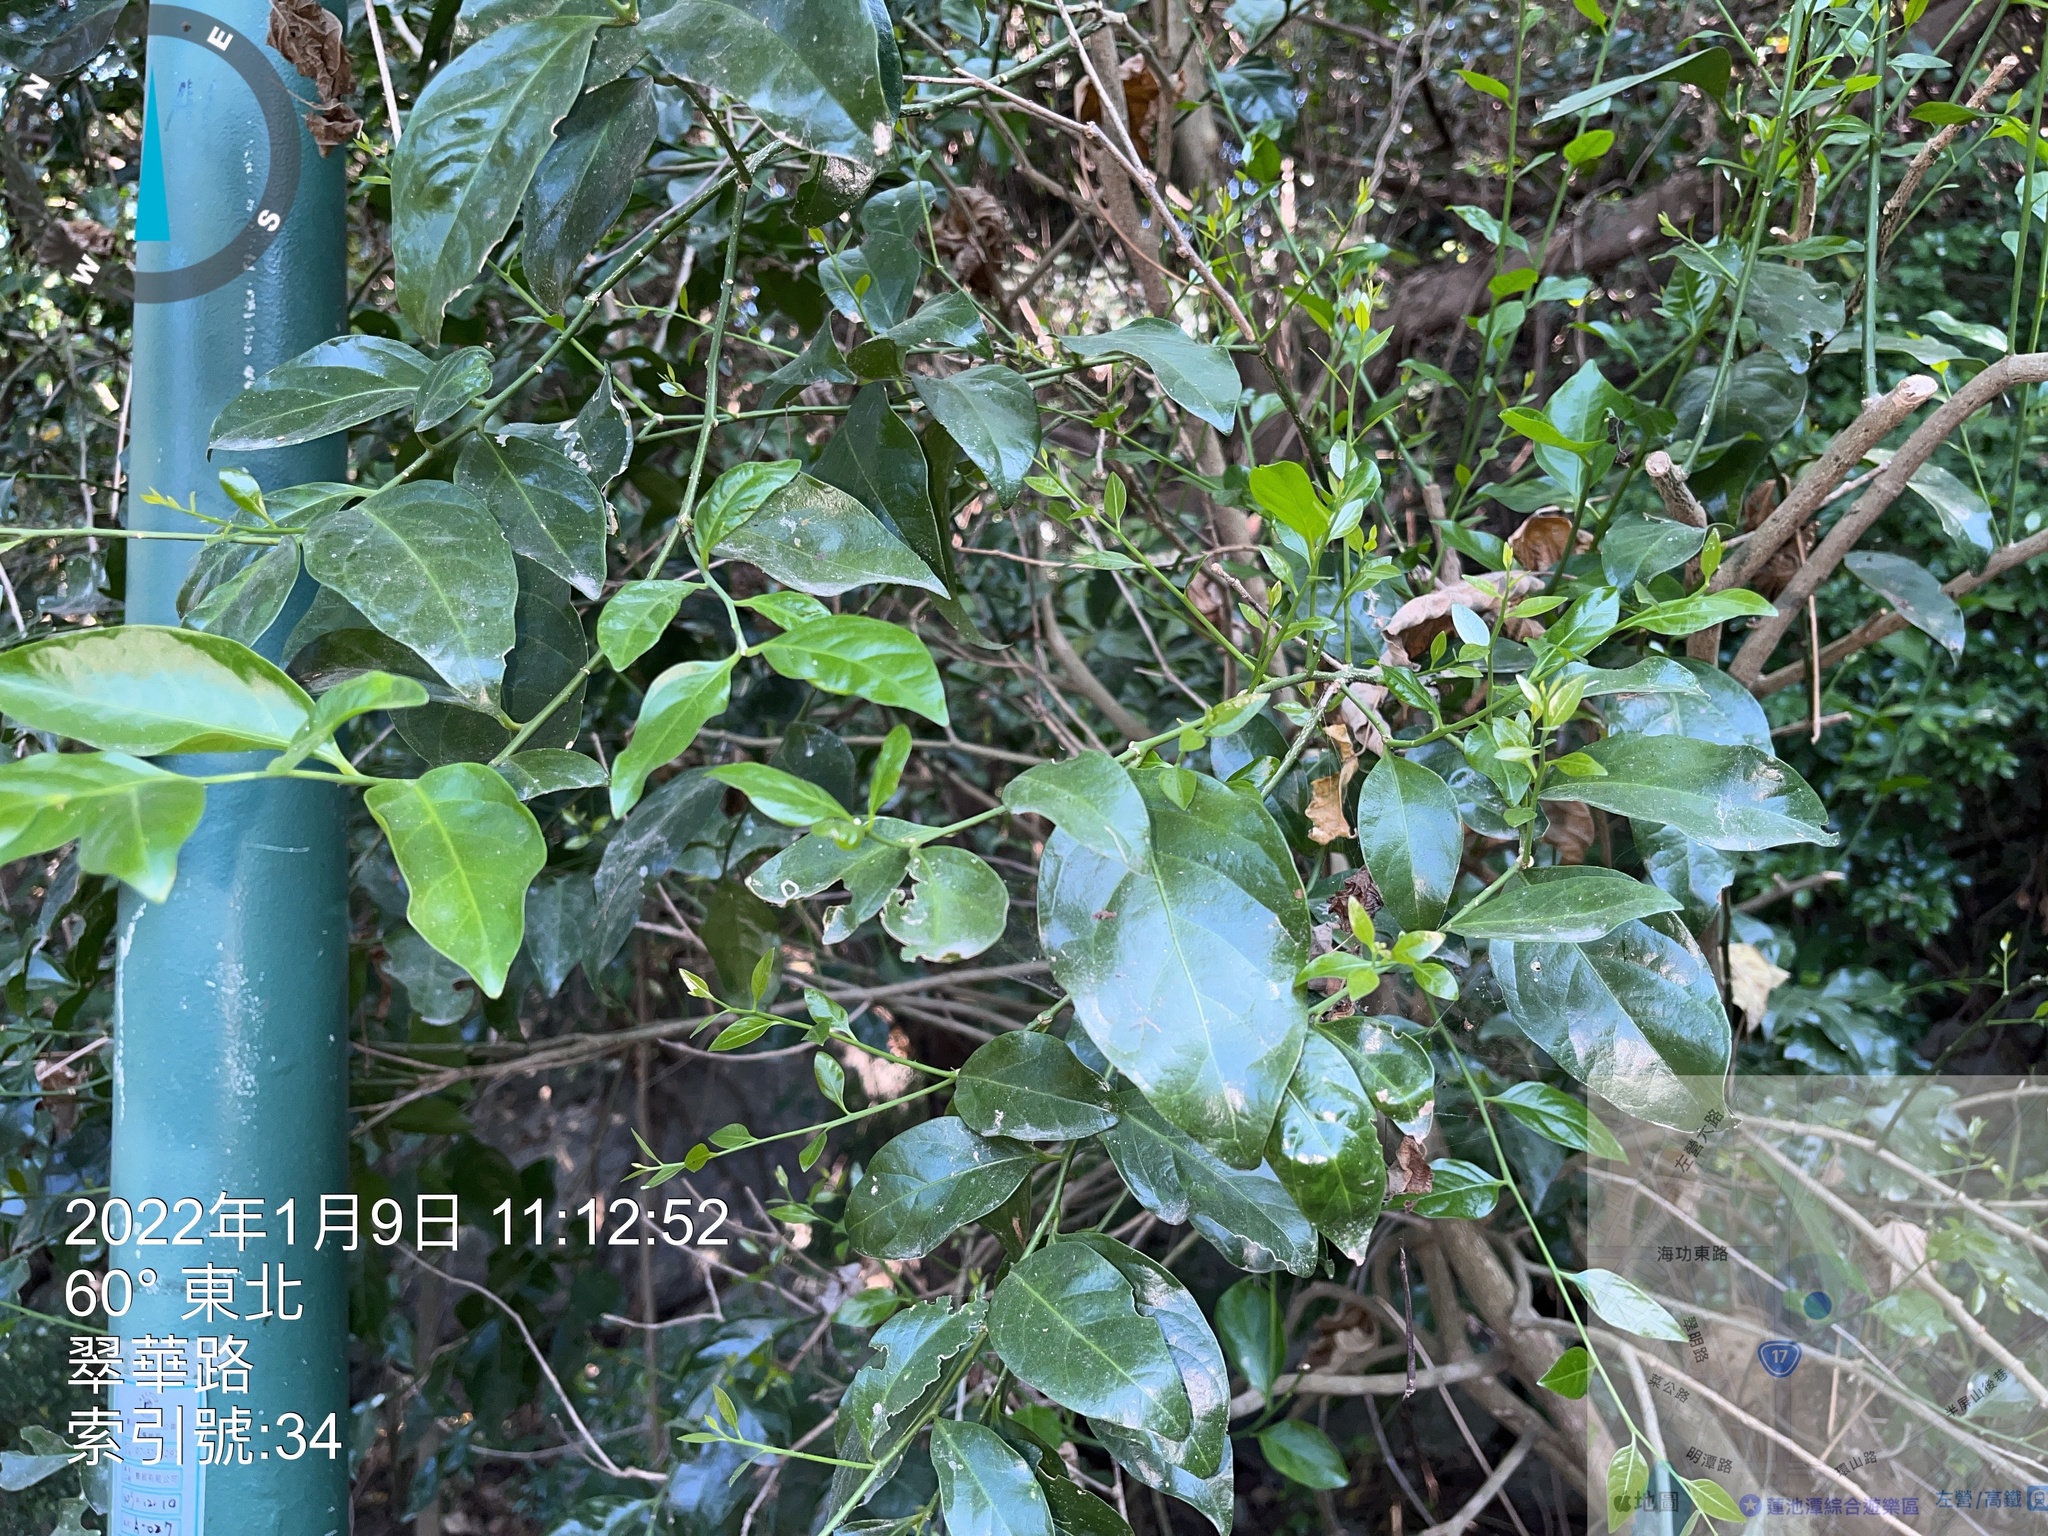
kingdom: Plantae
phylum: Tracheophyta
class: Magnoliopsida
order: Santalales
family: Opiliaceae
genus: Champereia
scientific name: Champereia manillana
